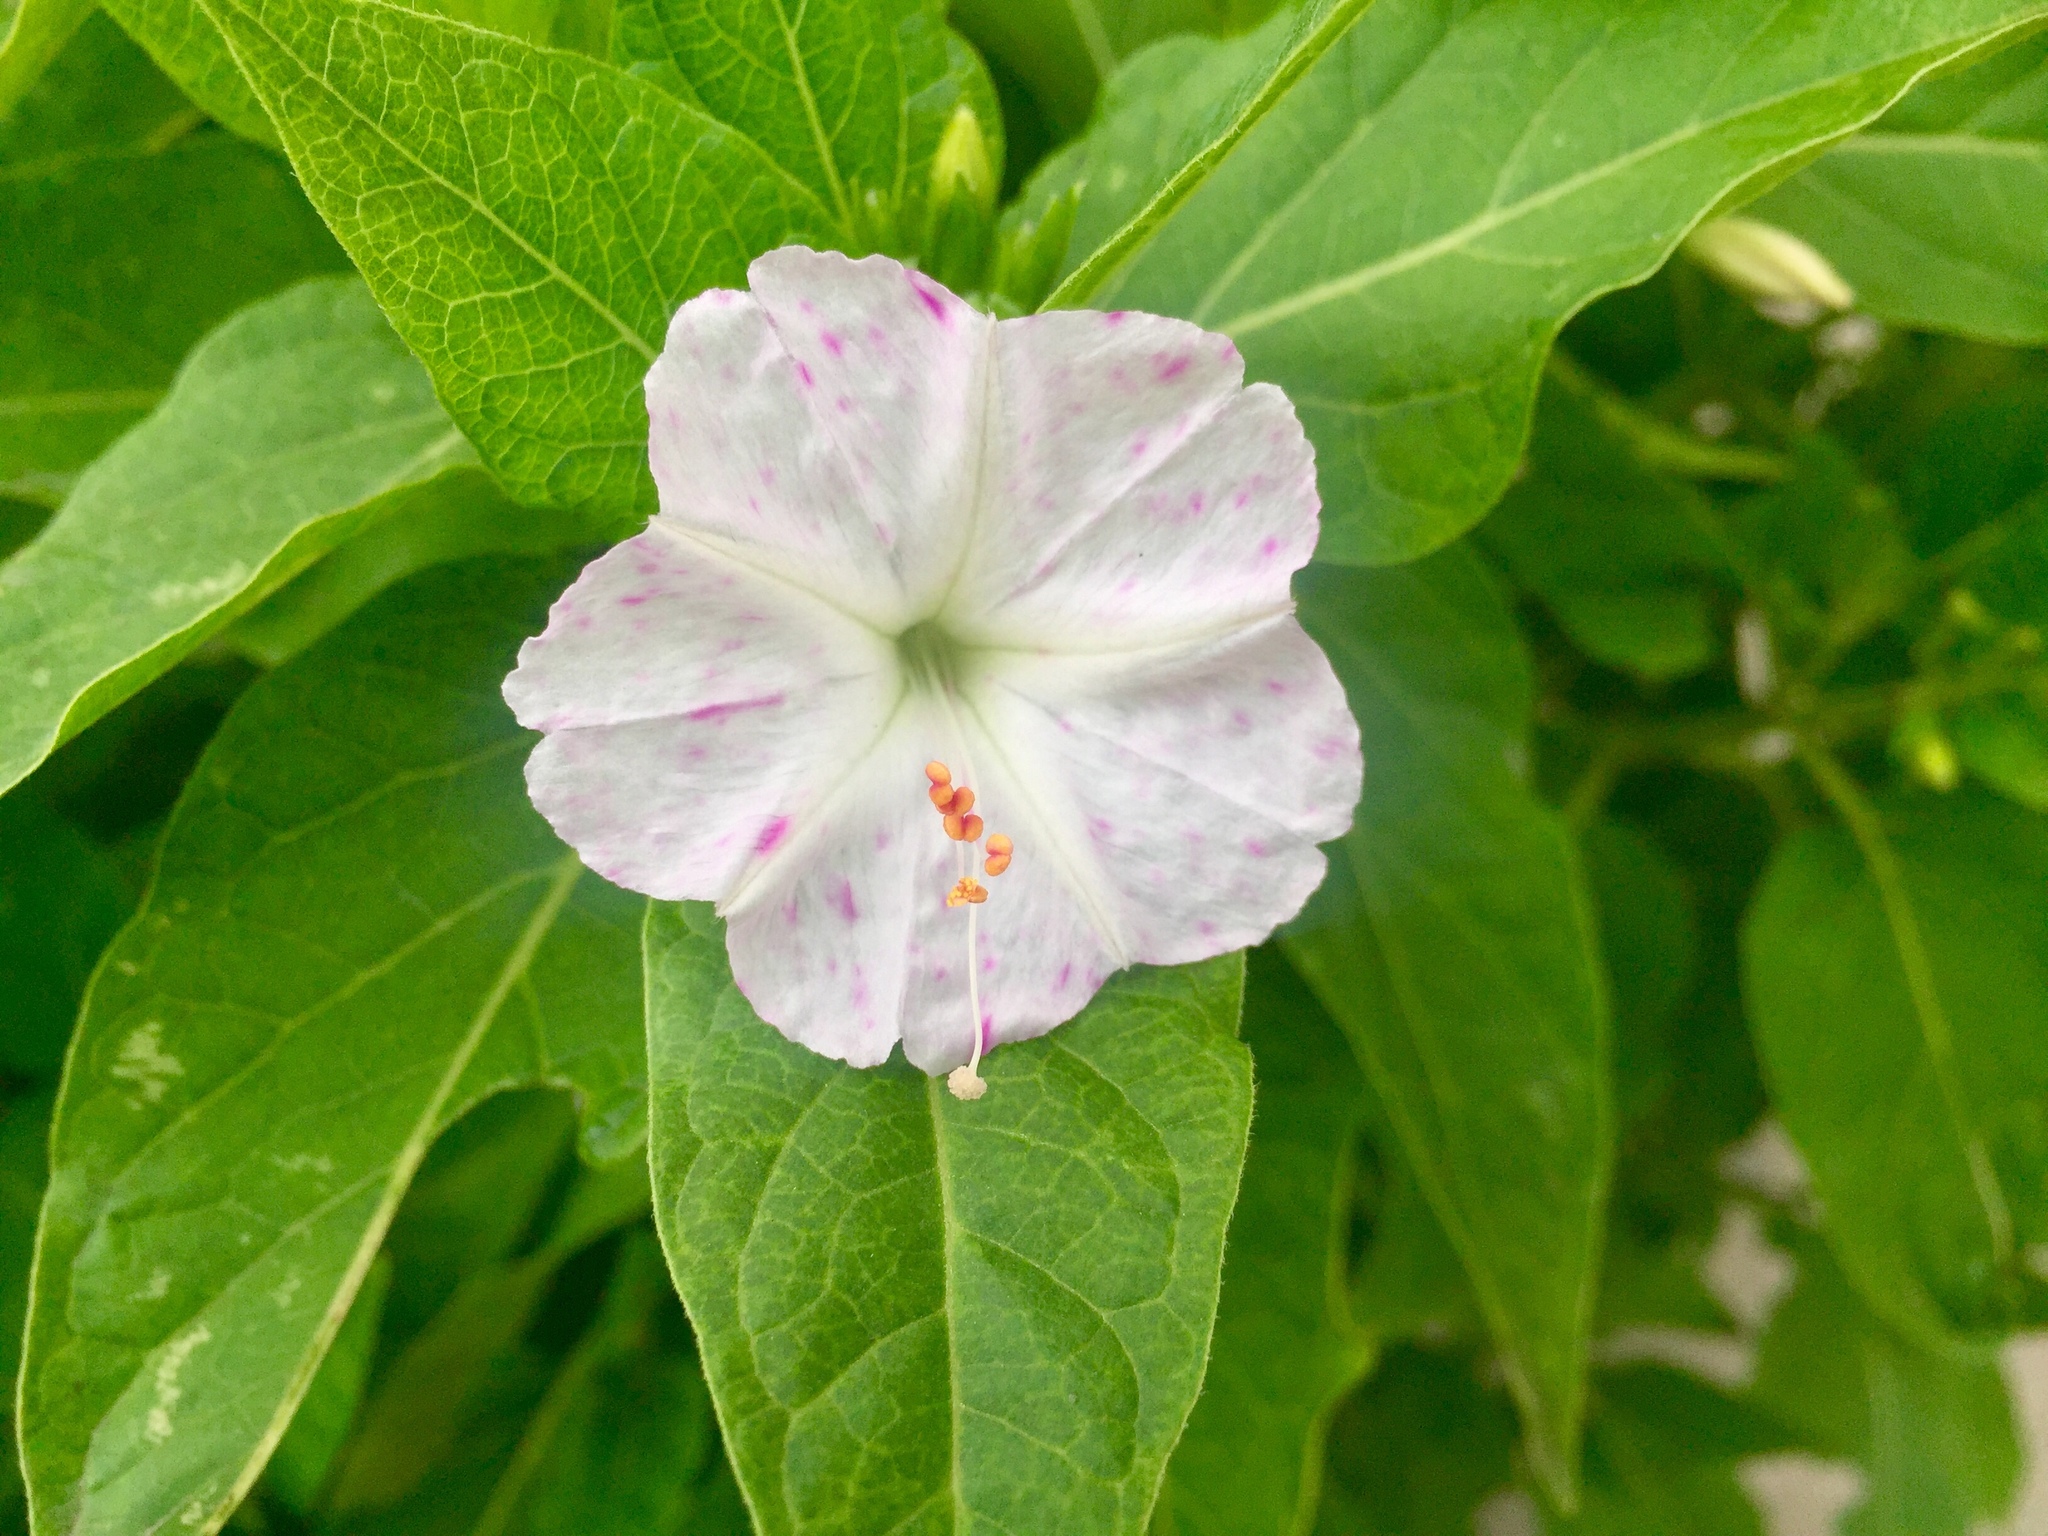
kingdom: Plantae
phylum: Tracheophyta
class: Magnoliopsida
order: Caryophyllales
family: Nyctaginaceae
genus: Mirabilis
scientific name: Mirabilis jalapa
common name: Marvel-of-peru
